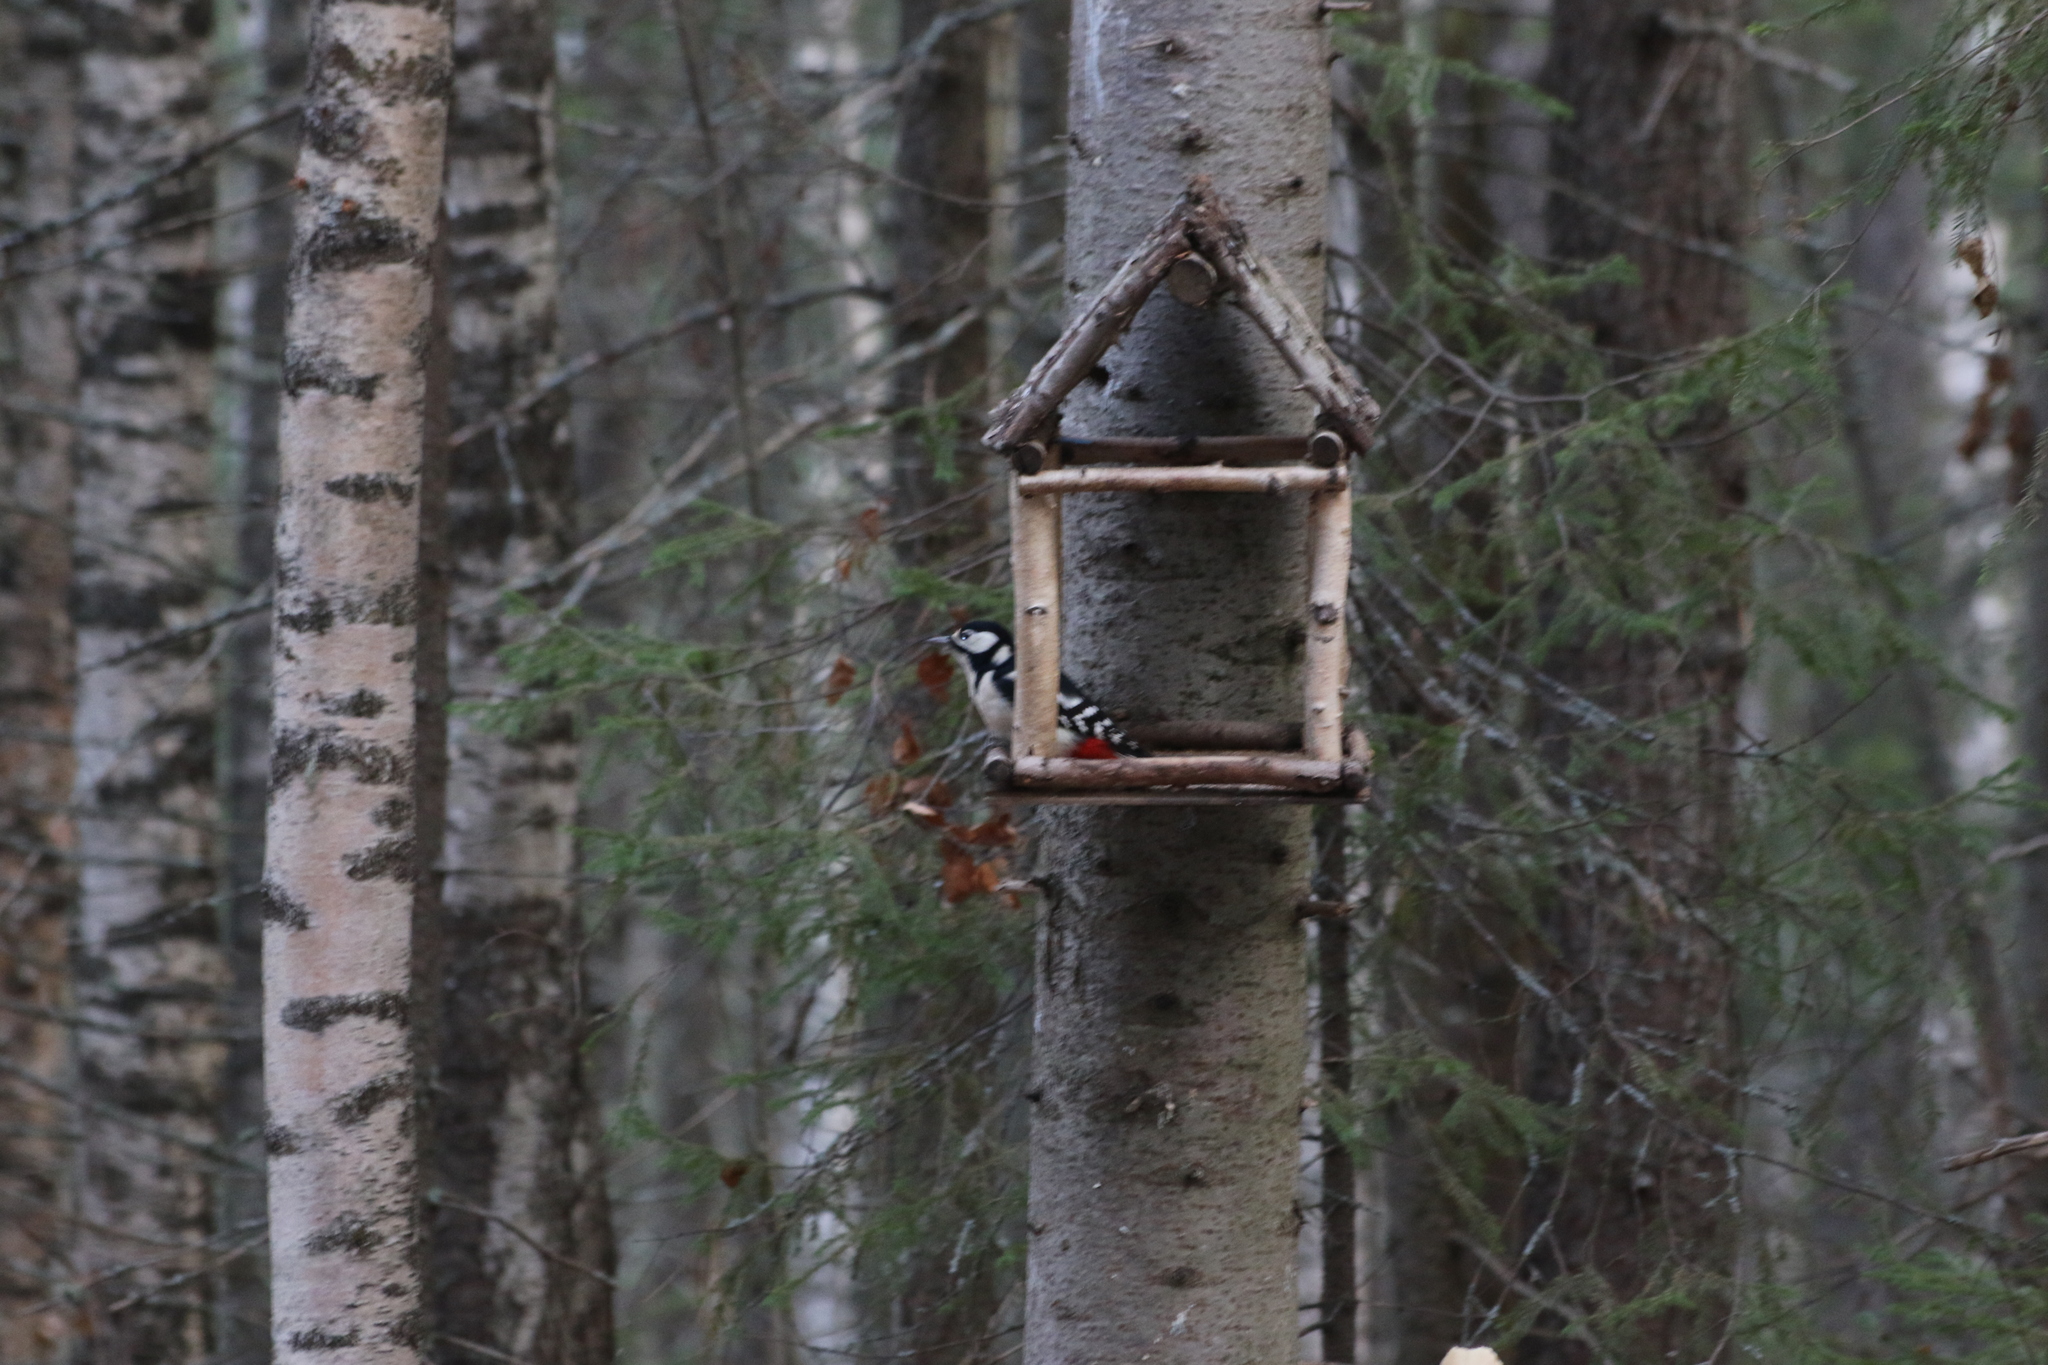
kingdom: Animalia
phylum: Chordata
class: Aves
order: Piciformes
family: Picidae
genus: Dendrocopos
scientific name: Dendrocopos major
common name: Great spotted woodpecker
